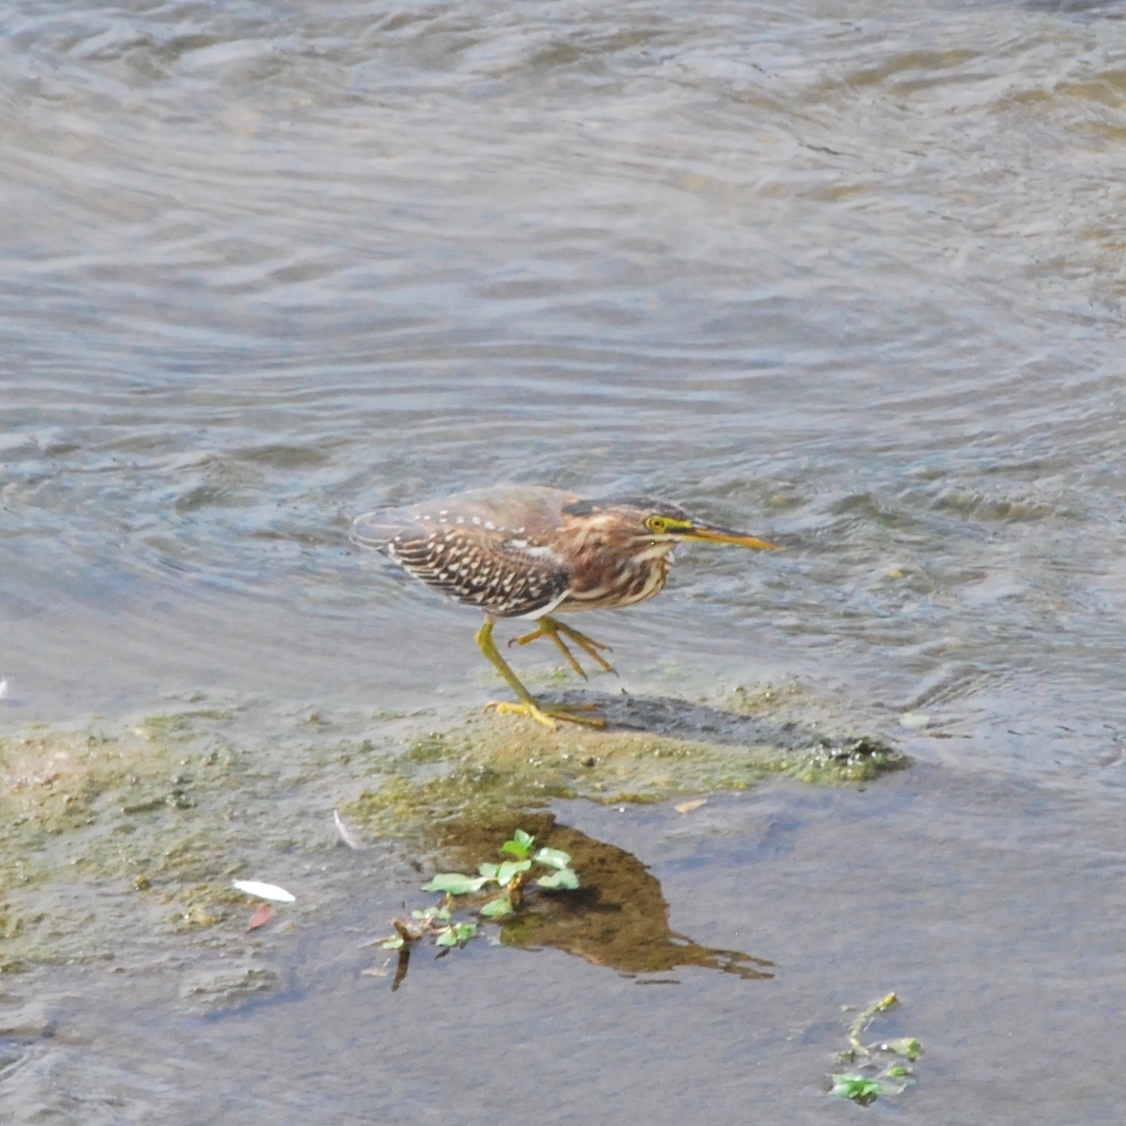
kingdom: Animalia
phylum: Chordata
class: Aves
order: Pelecaniformes
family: Ardeidae
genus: Butorides
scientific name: Butorides virescens
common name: Green heron
